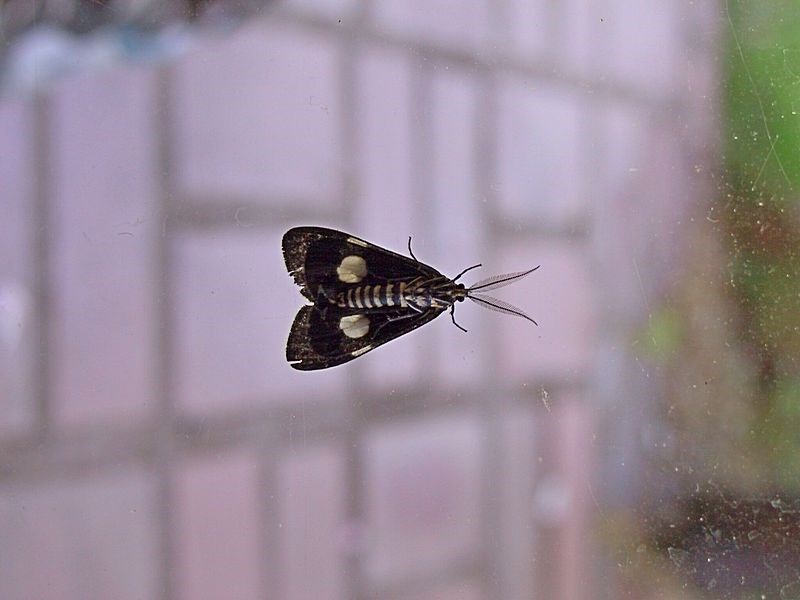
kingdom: Animalia
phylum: Arthropoda
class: Insecta
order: Lepidoptera
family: Erebidae
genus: Nyctemera
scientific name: Nyctemera amicus
